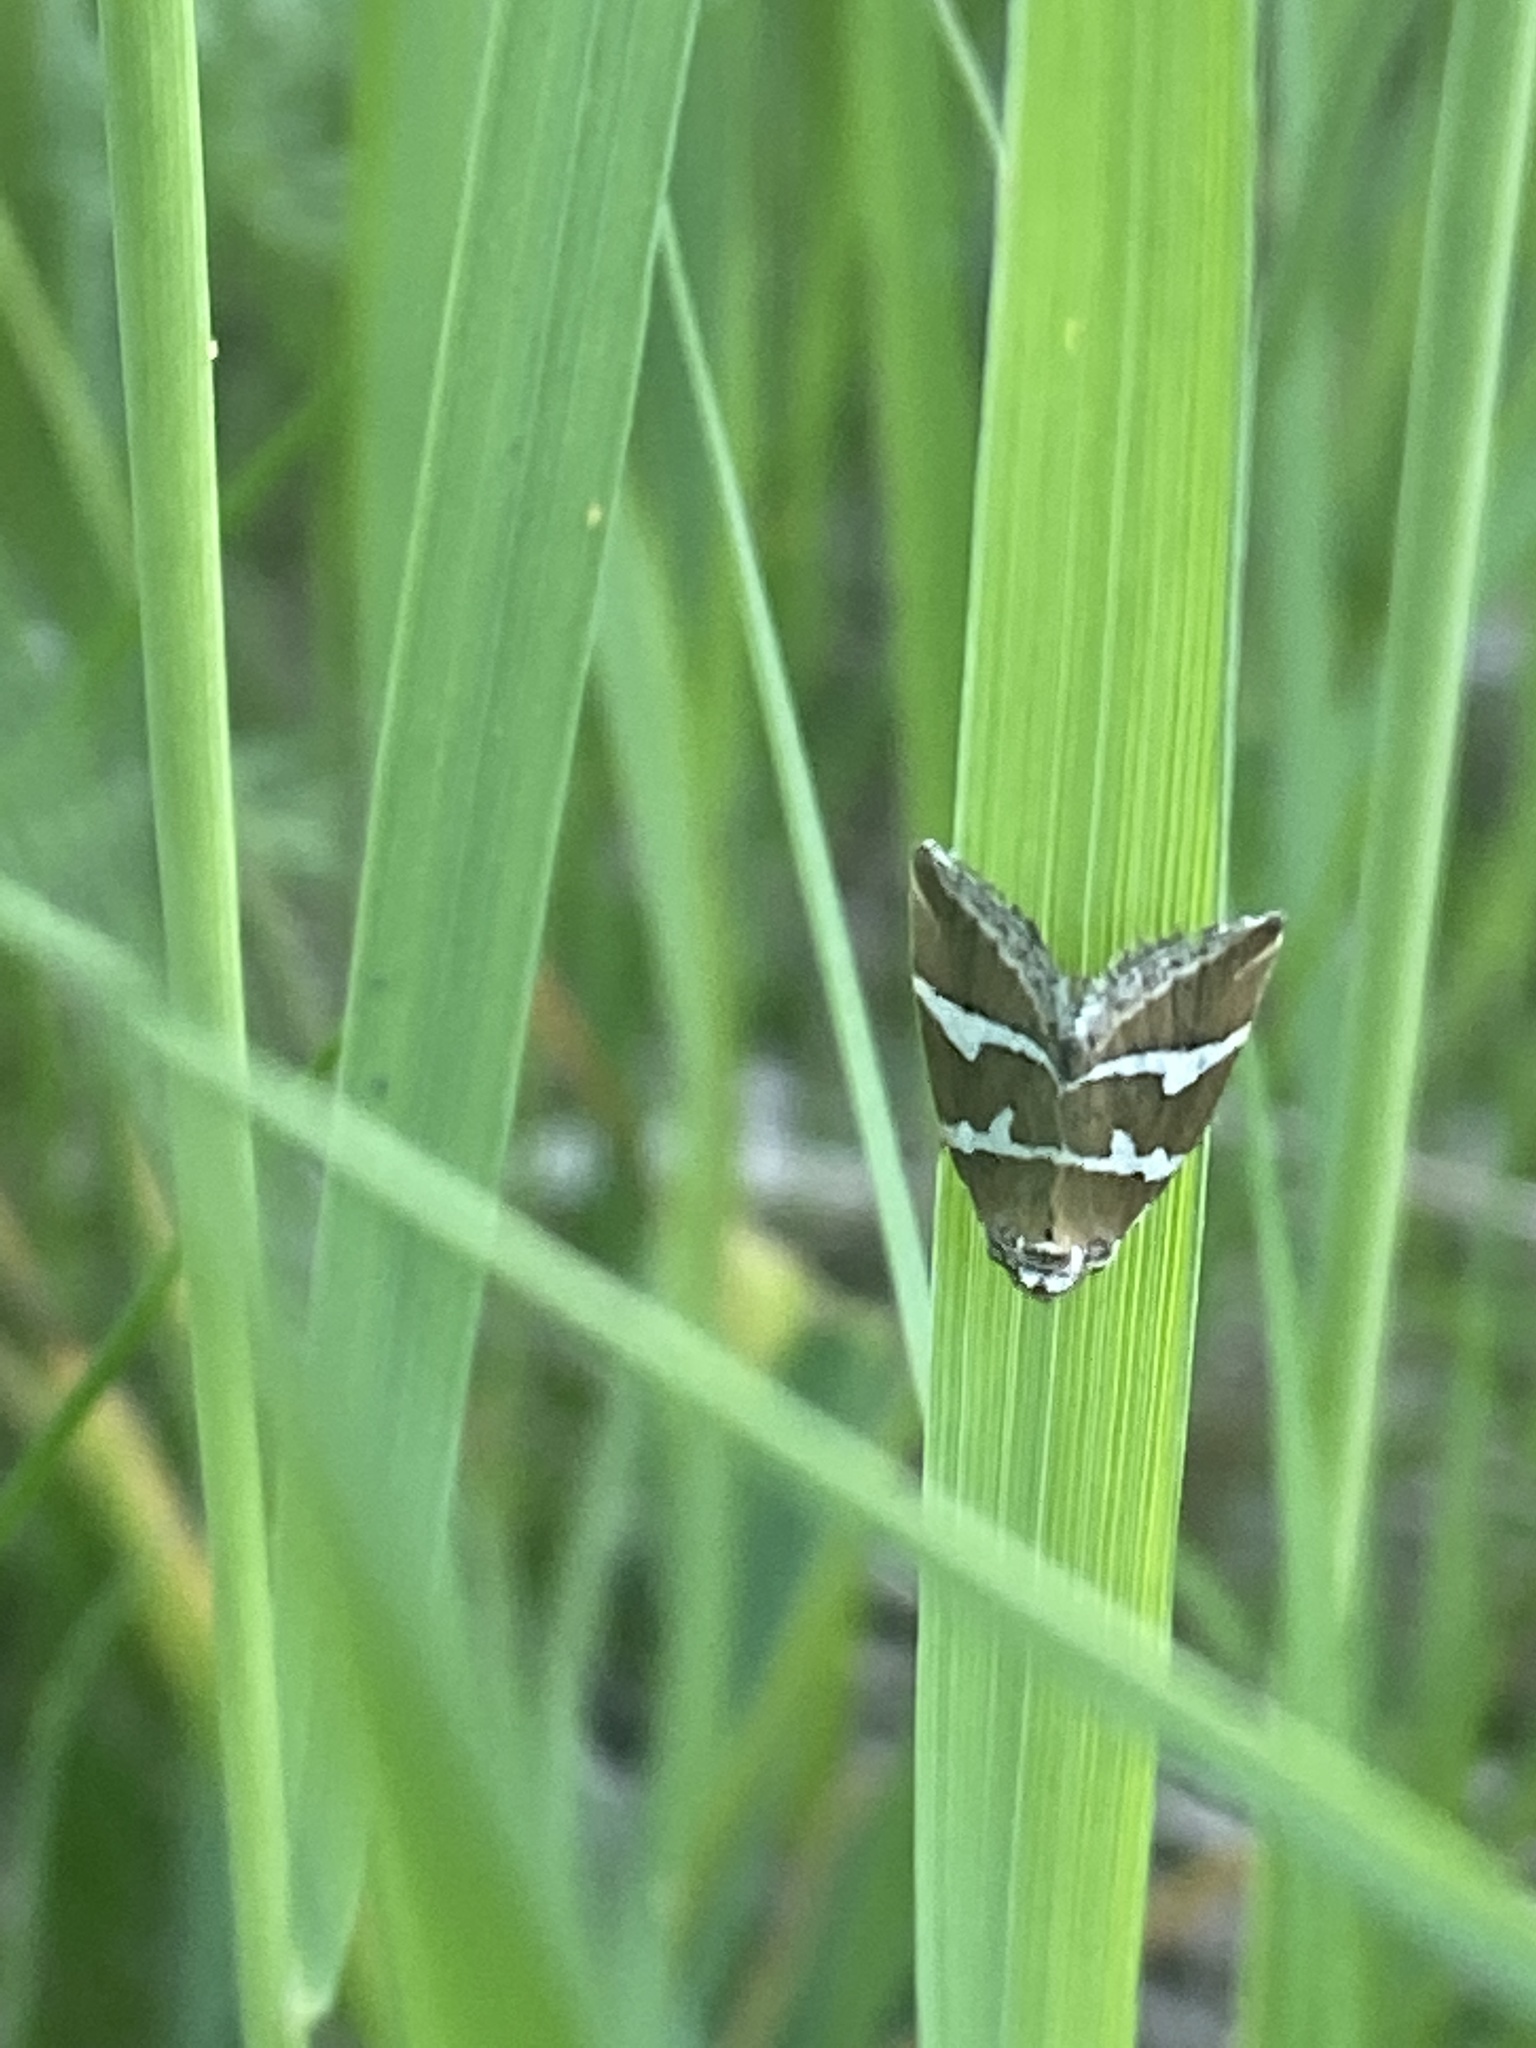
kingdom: Animalia
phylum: Arthropoda
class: Insecta
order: Lepidoptera
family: Noctuidae
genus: Deltote
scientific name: Deltote bankiana
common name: Silver barred
